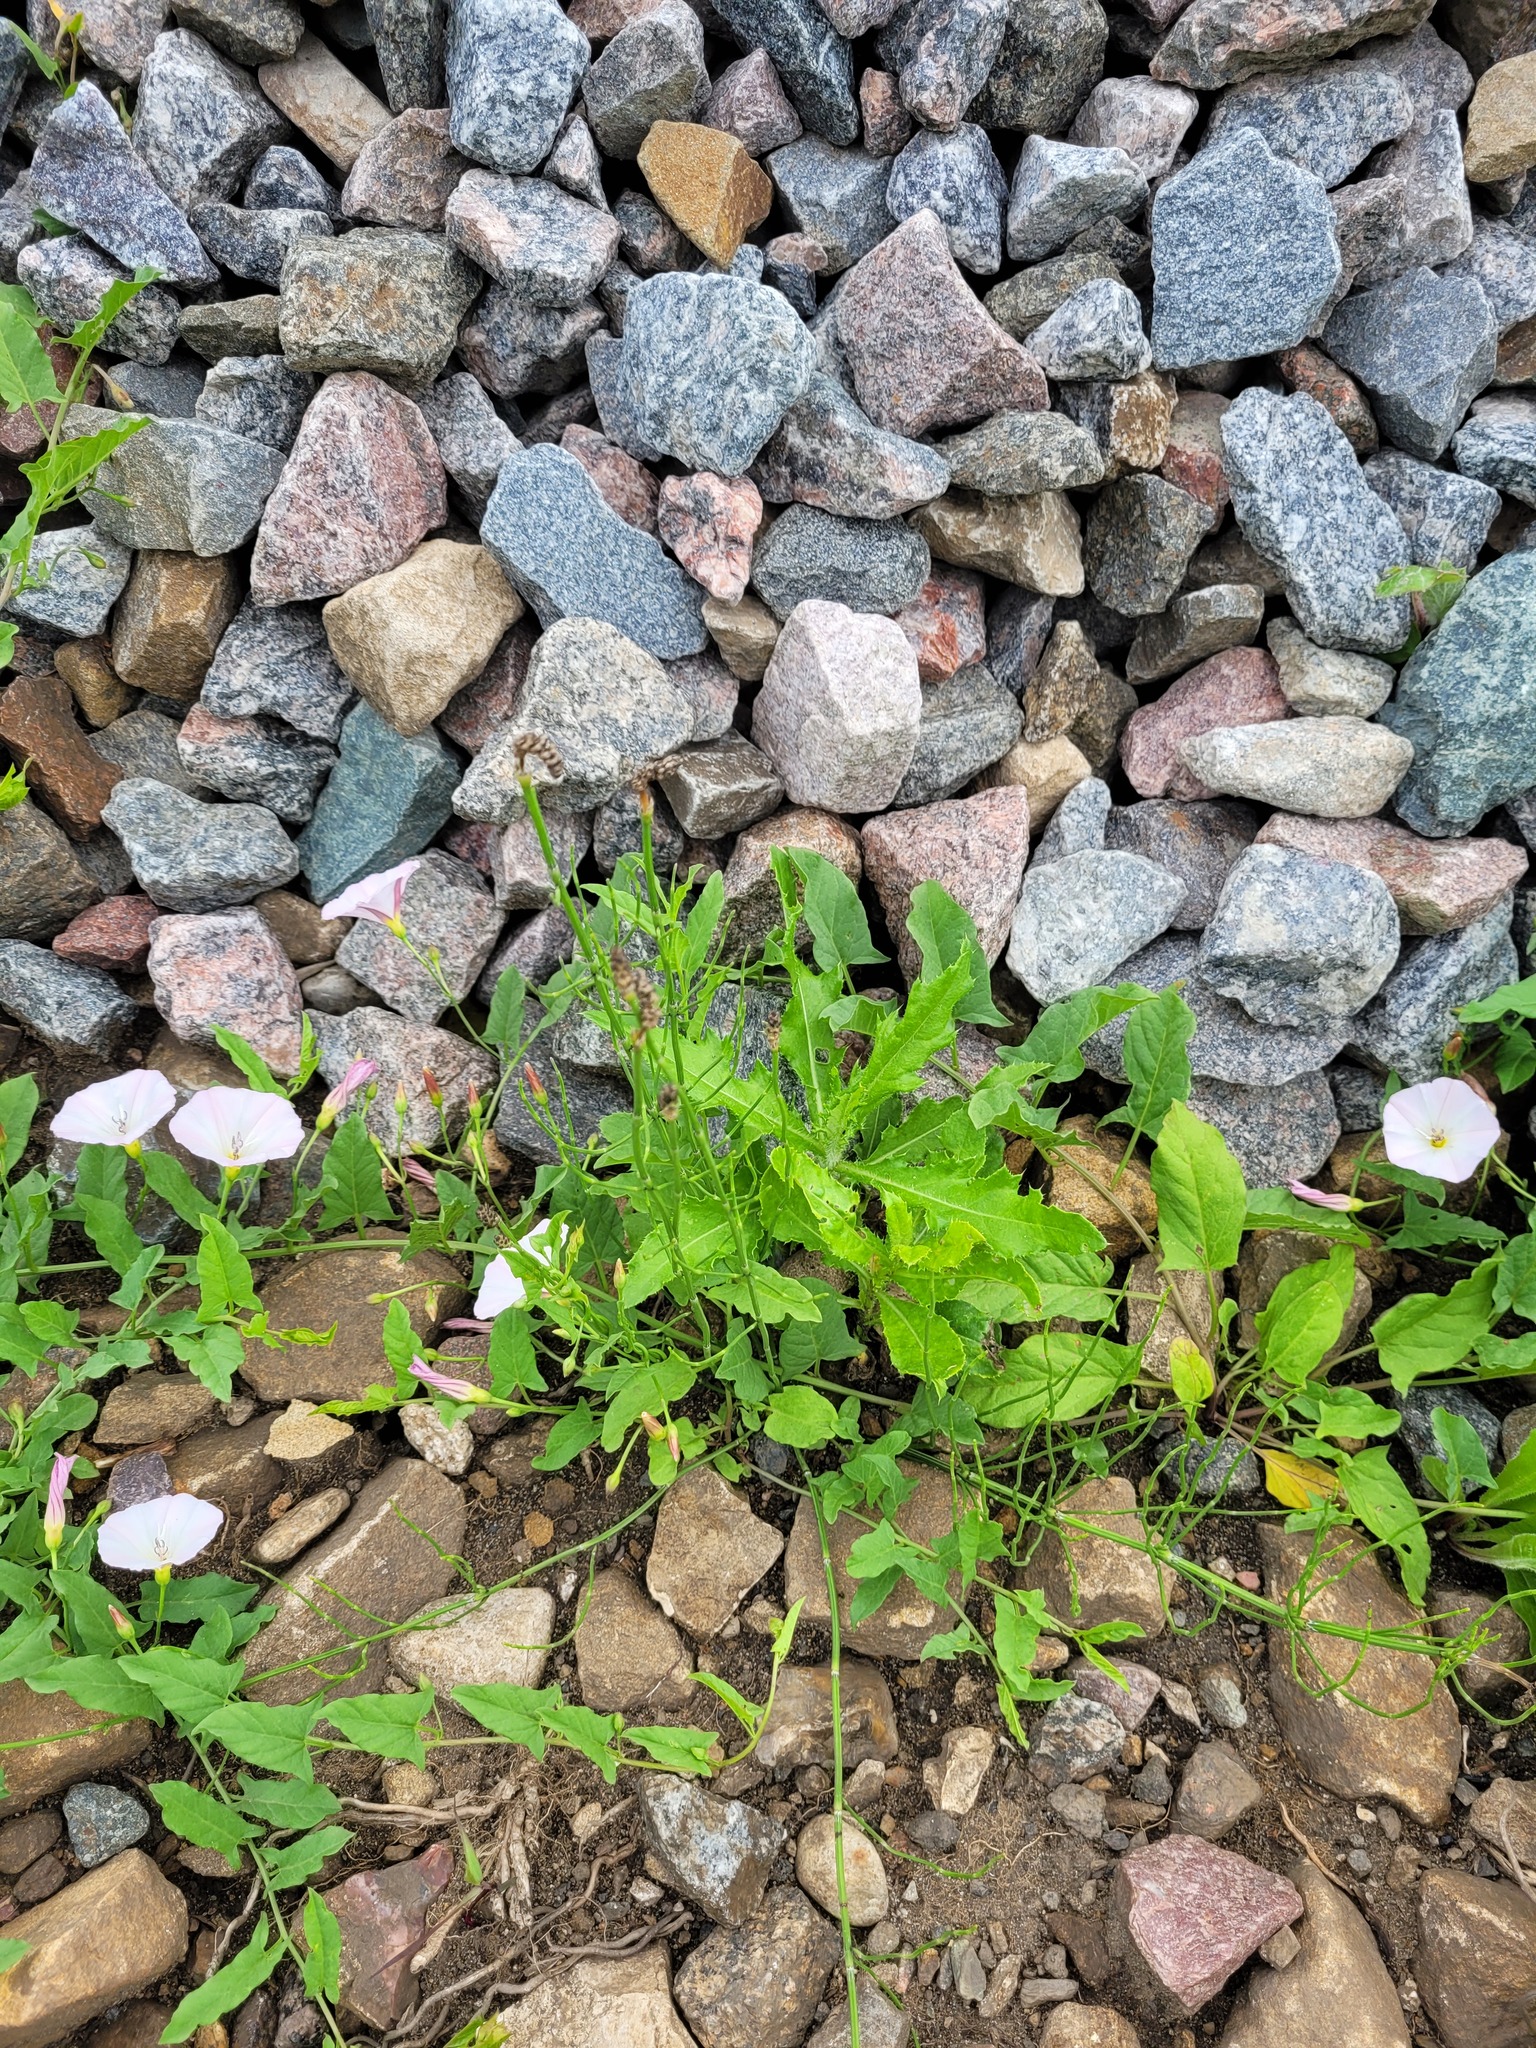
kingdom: Plantae
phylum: Tracheophyta
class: Magnoliopsida
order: Asterales
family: Asteraceae
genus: Cirsium
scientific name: Cirsium arvense
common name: Creeping thistle
